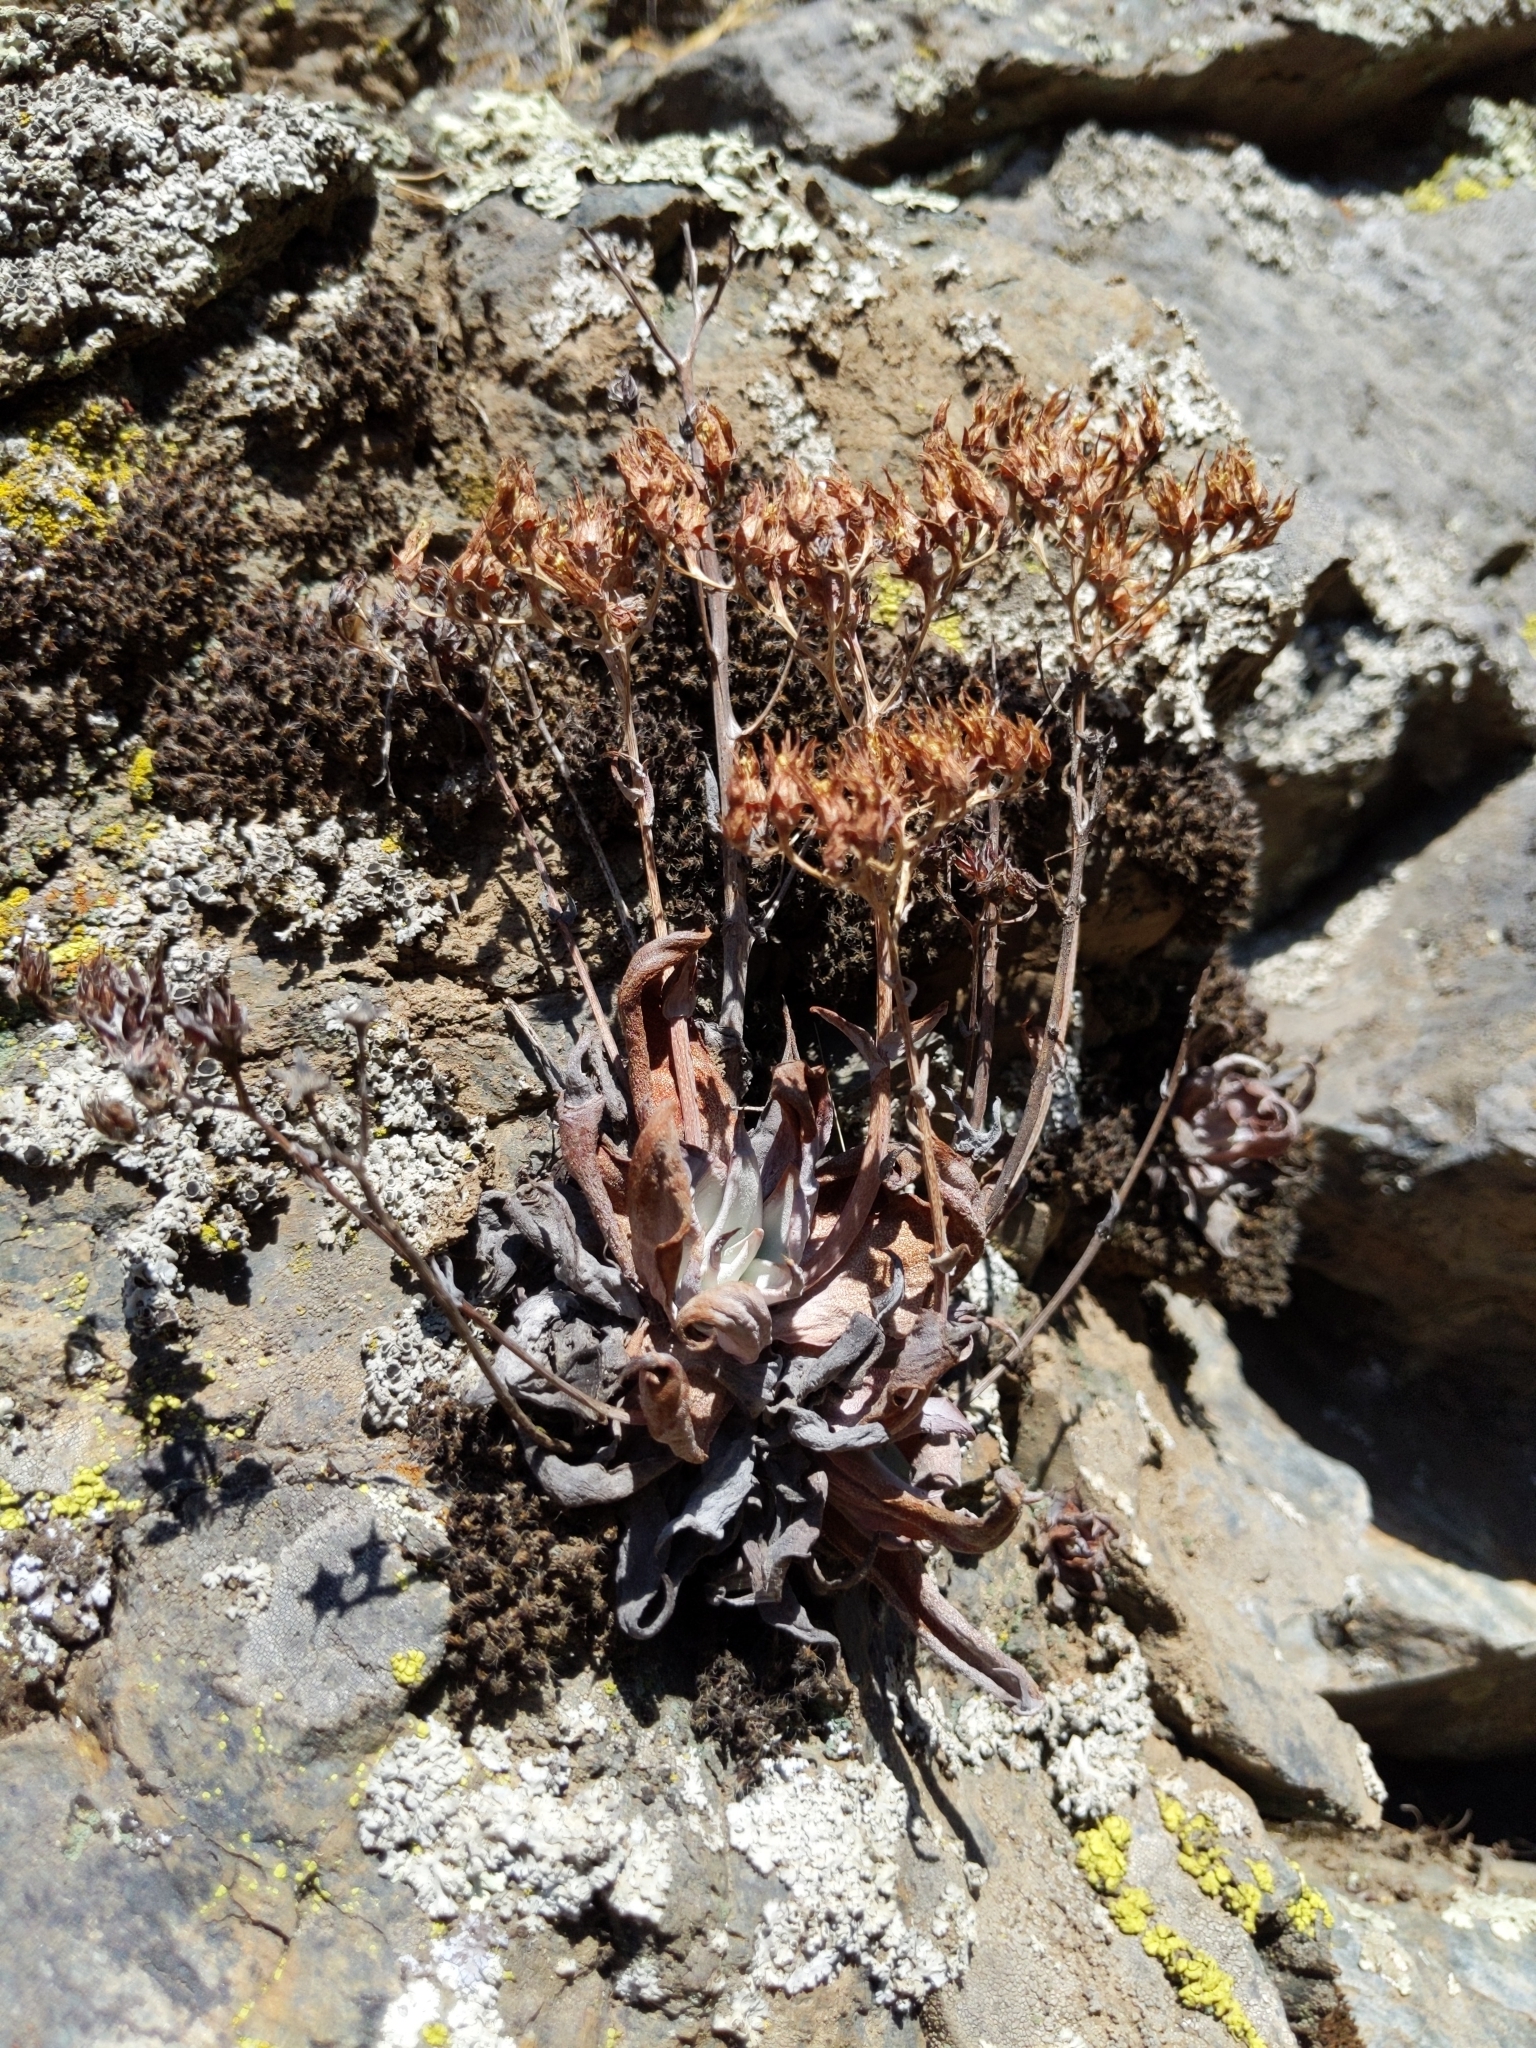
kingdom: Plantae
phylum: Tracheophyta
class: Magnoliopsida
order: Saxifragales
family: Crassulaceae
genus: Dudleya
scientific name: Dudleya cymosa
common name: Canyon dudleya
